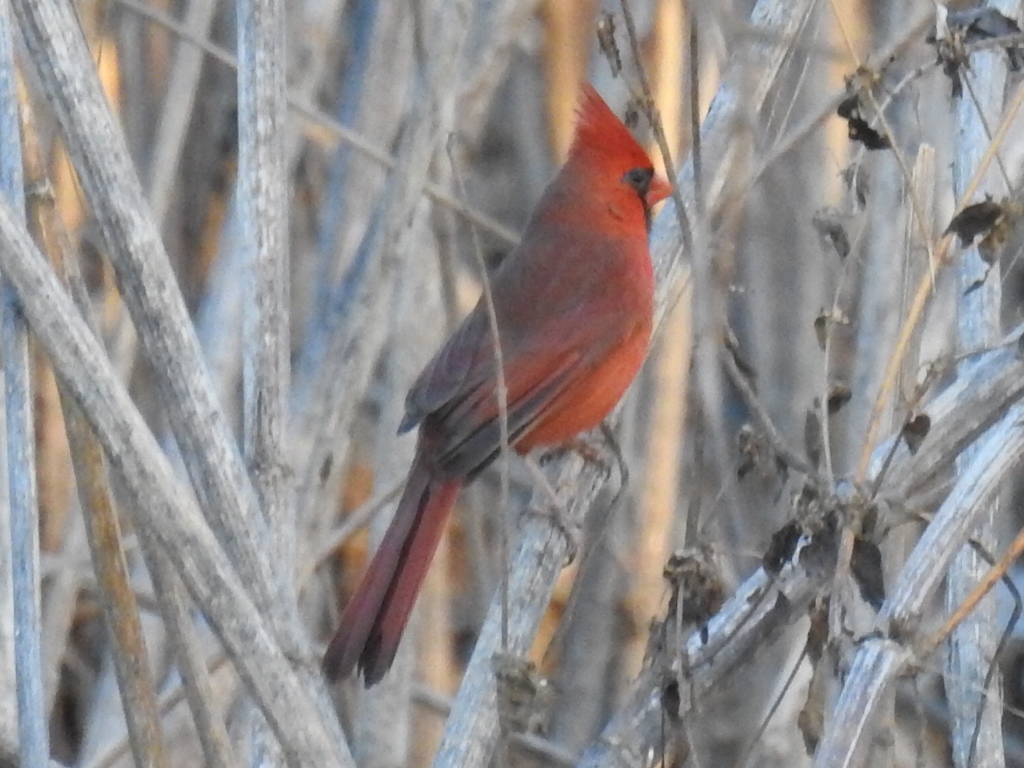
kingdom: Animalia
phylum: Chordata
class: Aves
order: Passeriformes
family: Cardinalidae
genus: Cardinalis
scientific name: Cardinalis cardinalis
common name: Northern cardinal
